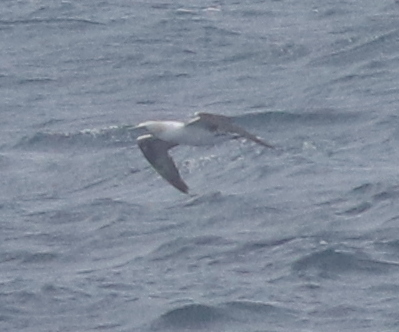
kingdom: Animalia
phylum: Chordata
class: Aves
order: Suliformes
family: Sulidae
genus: Morus
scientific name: Morus bassanus
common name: Northern gannet
